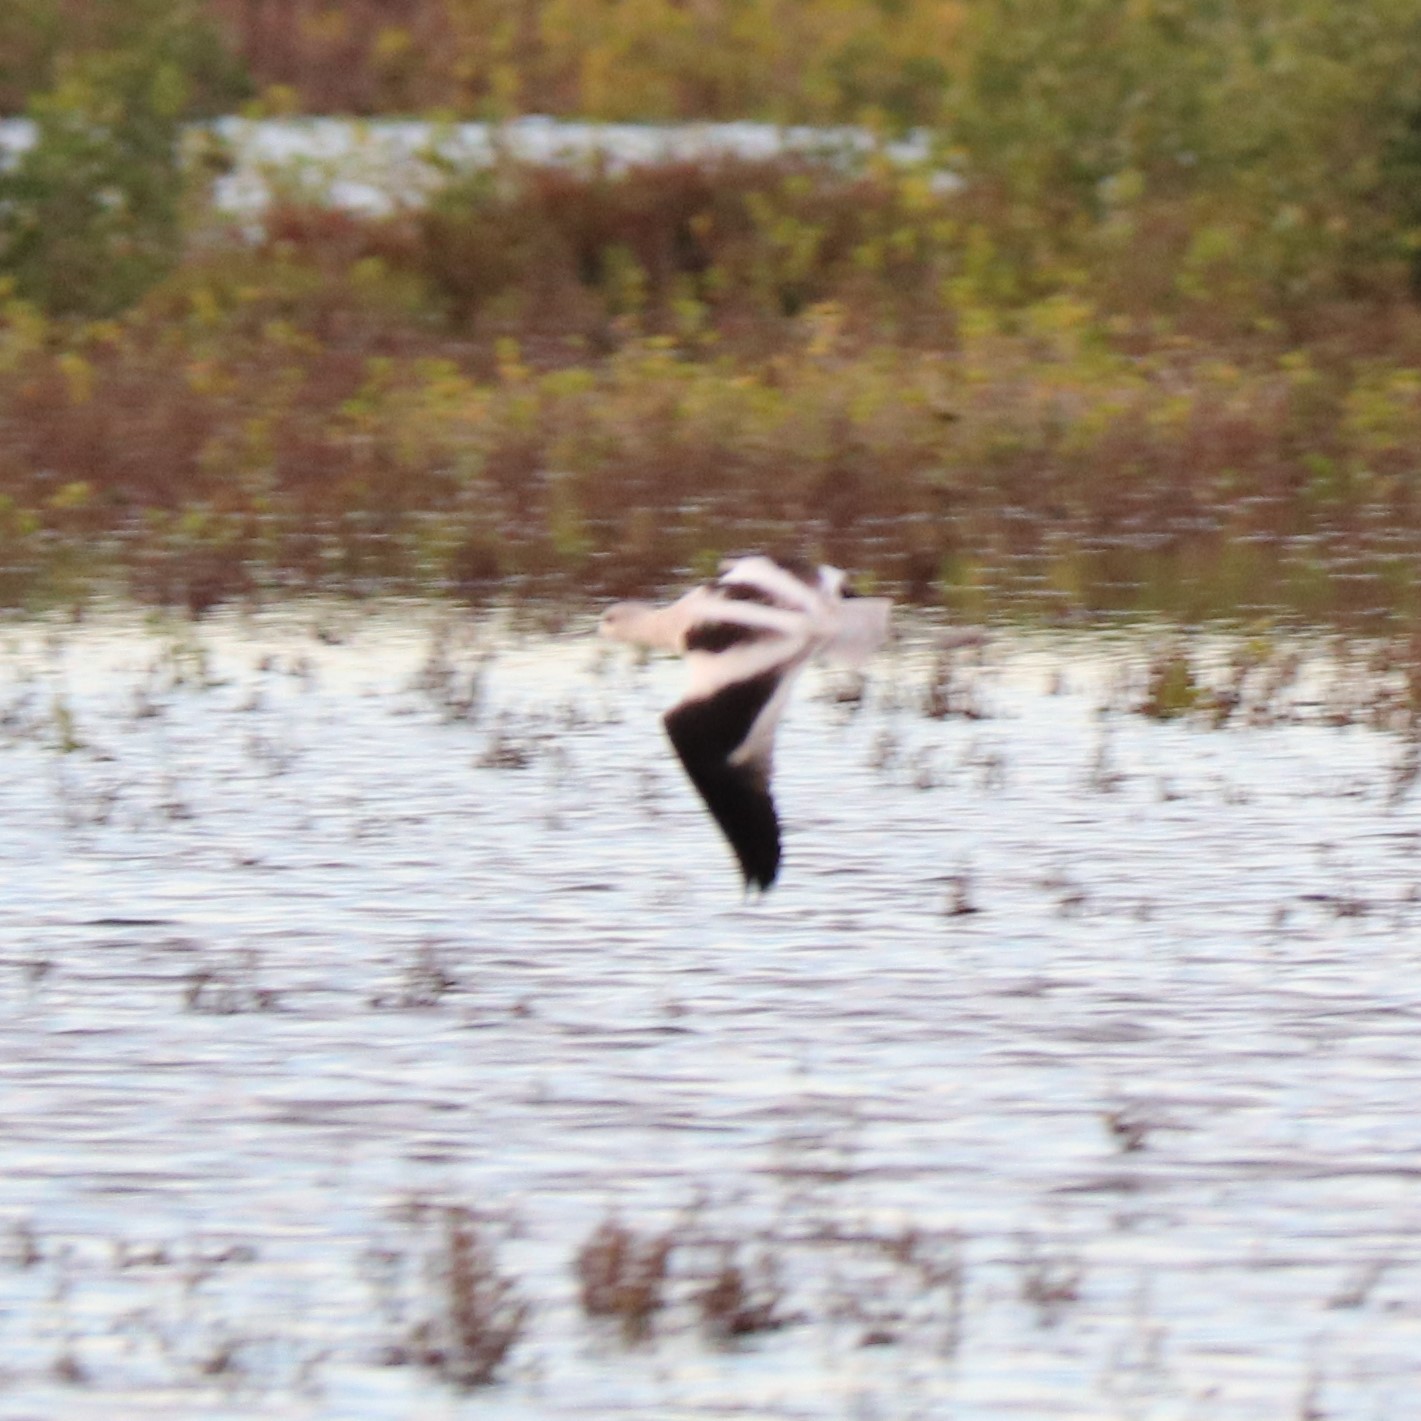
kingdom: Animalia
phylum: Chordata
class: Aves
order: Charadriiformes
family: Recurvirostridae
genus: Recurvirostra
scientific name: Recurvirostra americana
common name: American avocet
